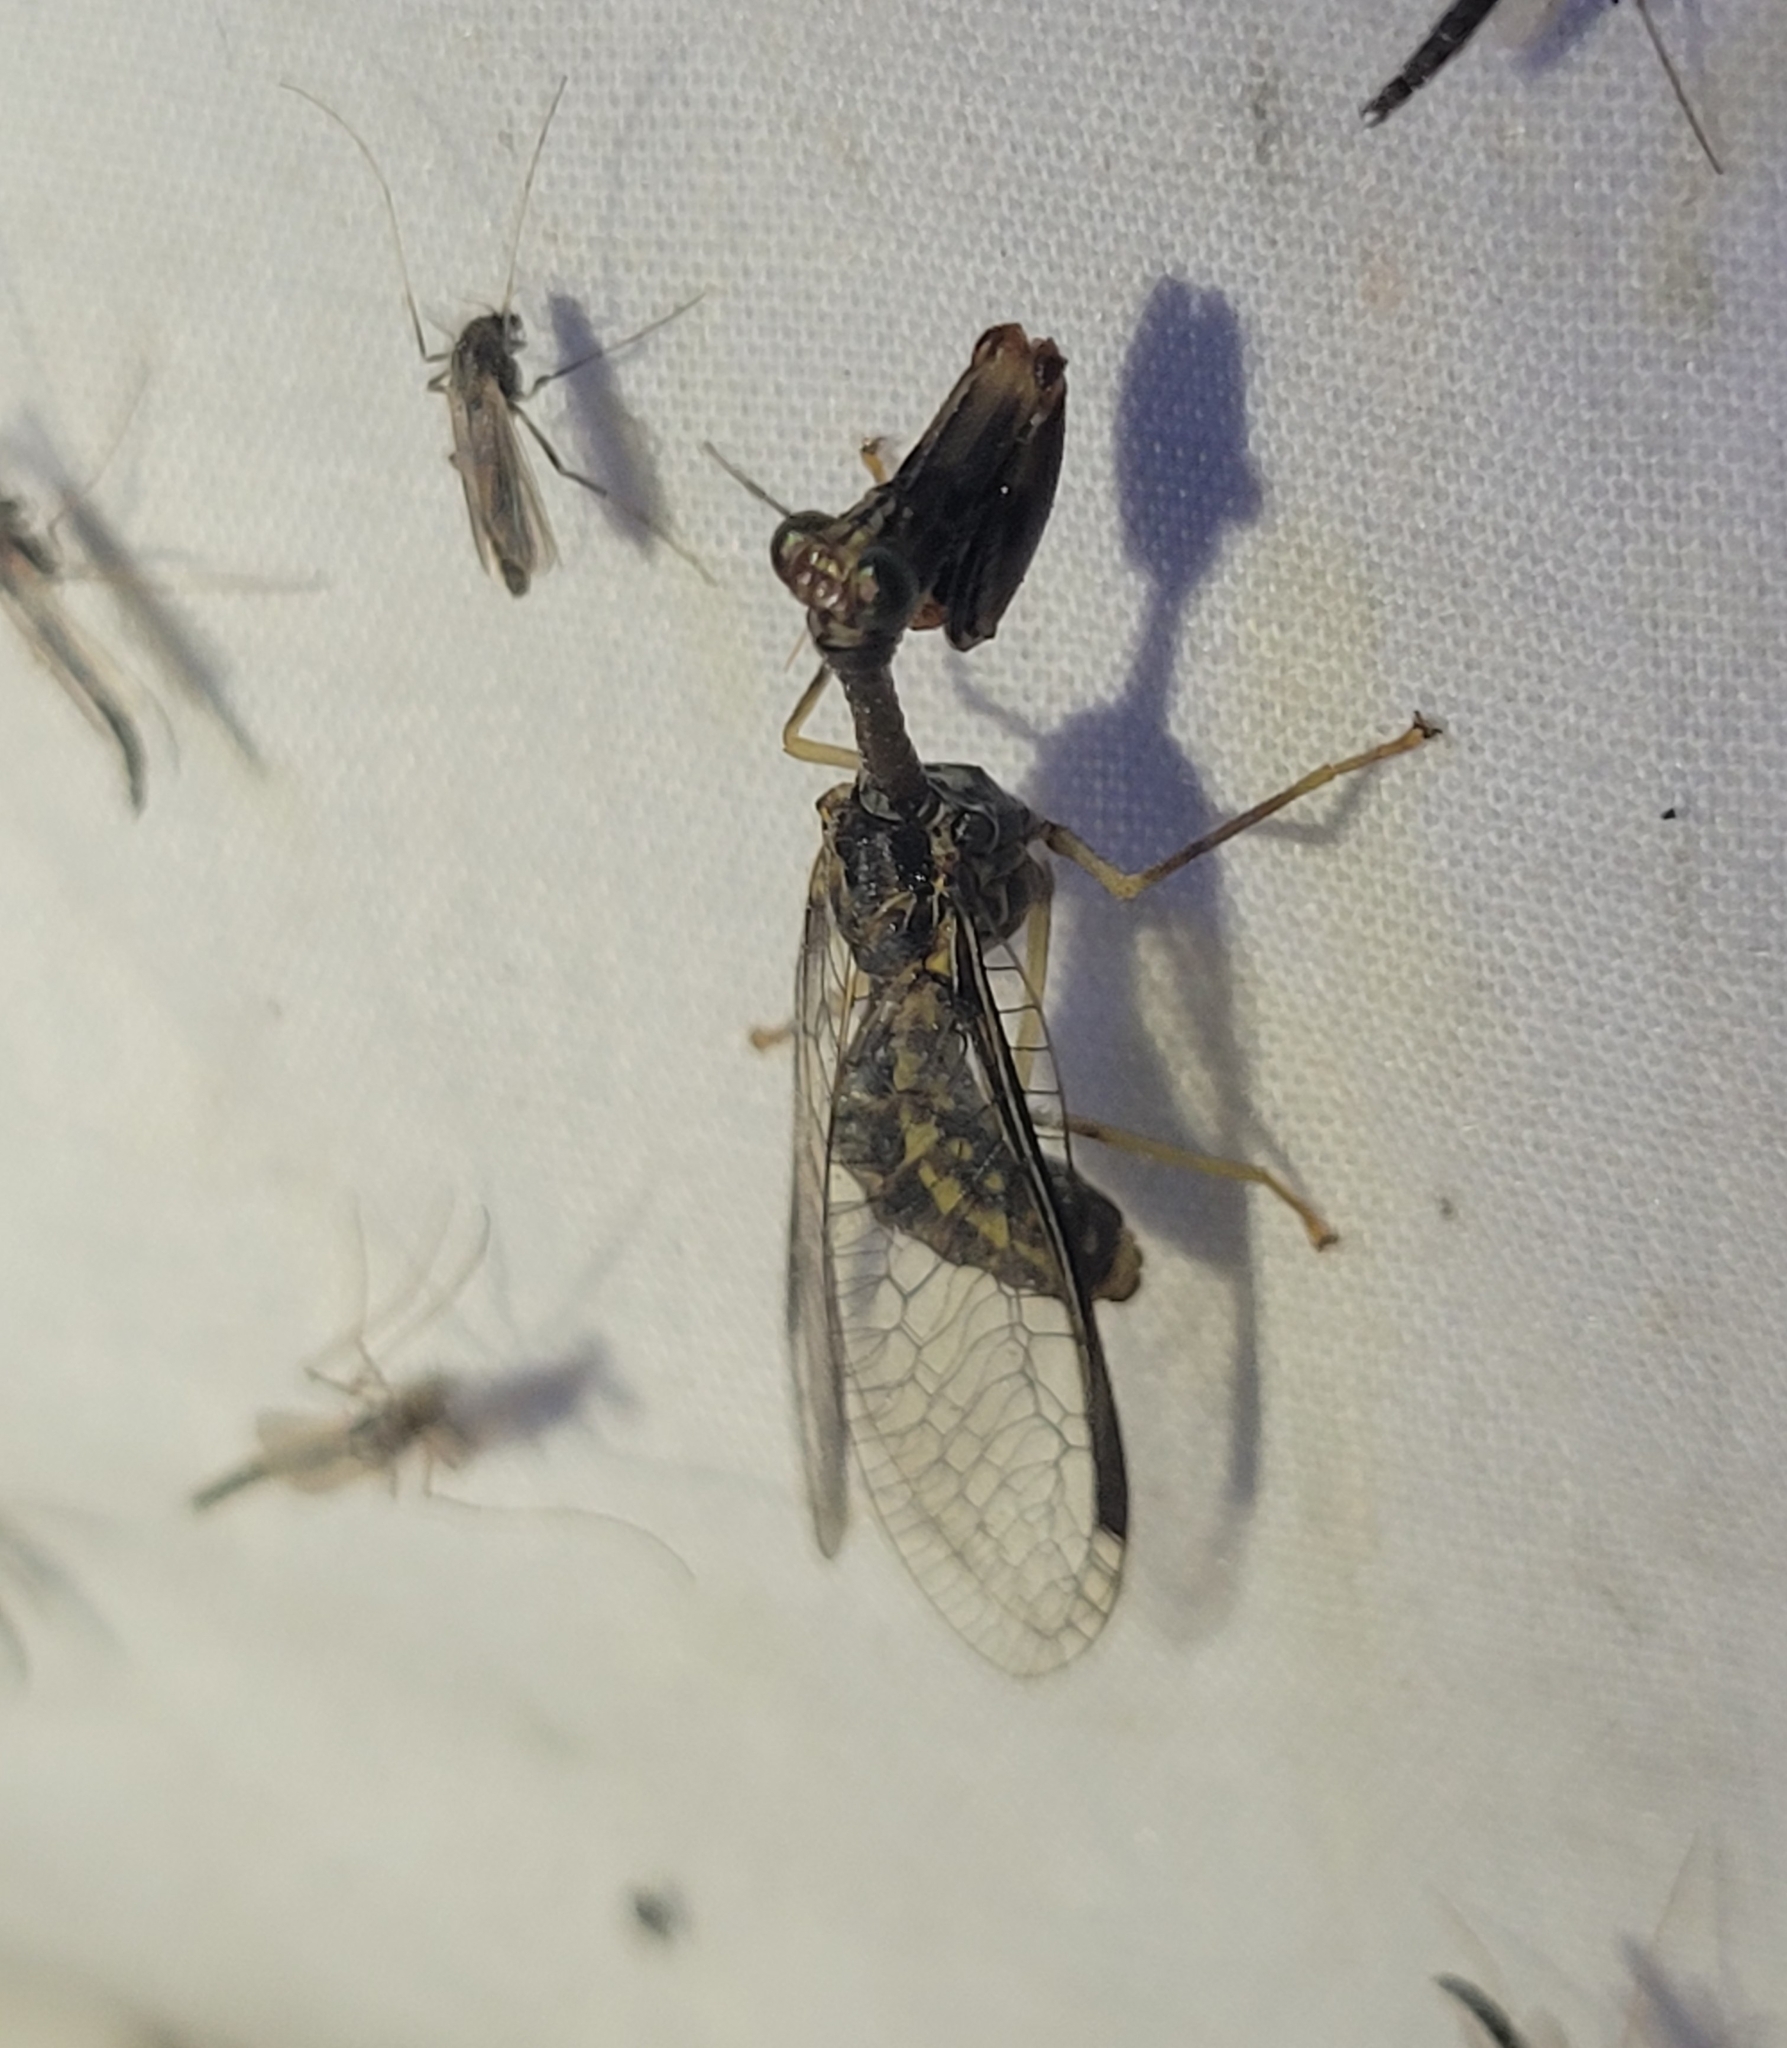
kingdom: Animalia
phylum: Arthropoda
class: Insecta
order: Neuroptera
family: Mantispidae
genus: Dicromantispa
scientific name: Dicromantispa sayi
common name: Say's mantidfly
